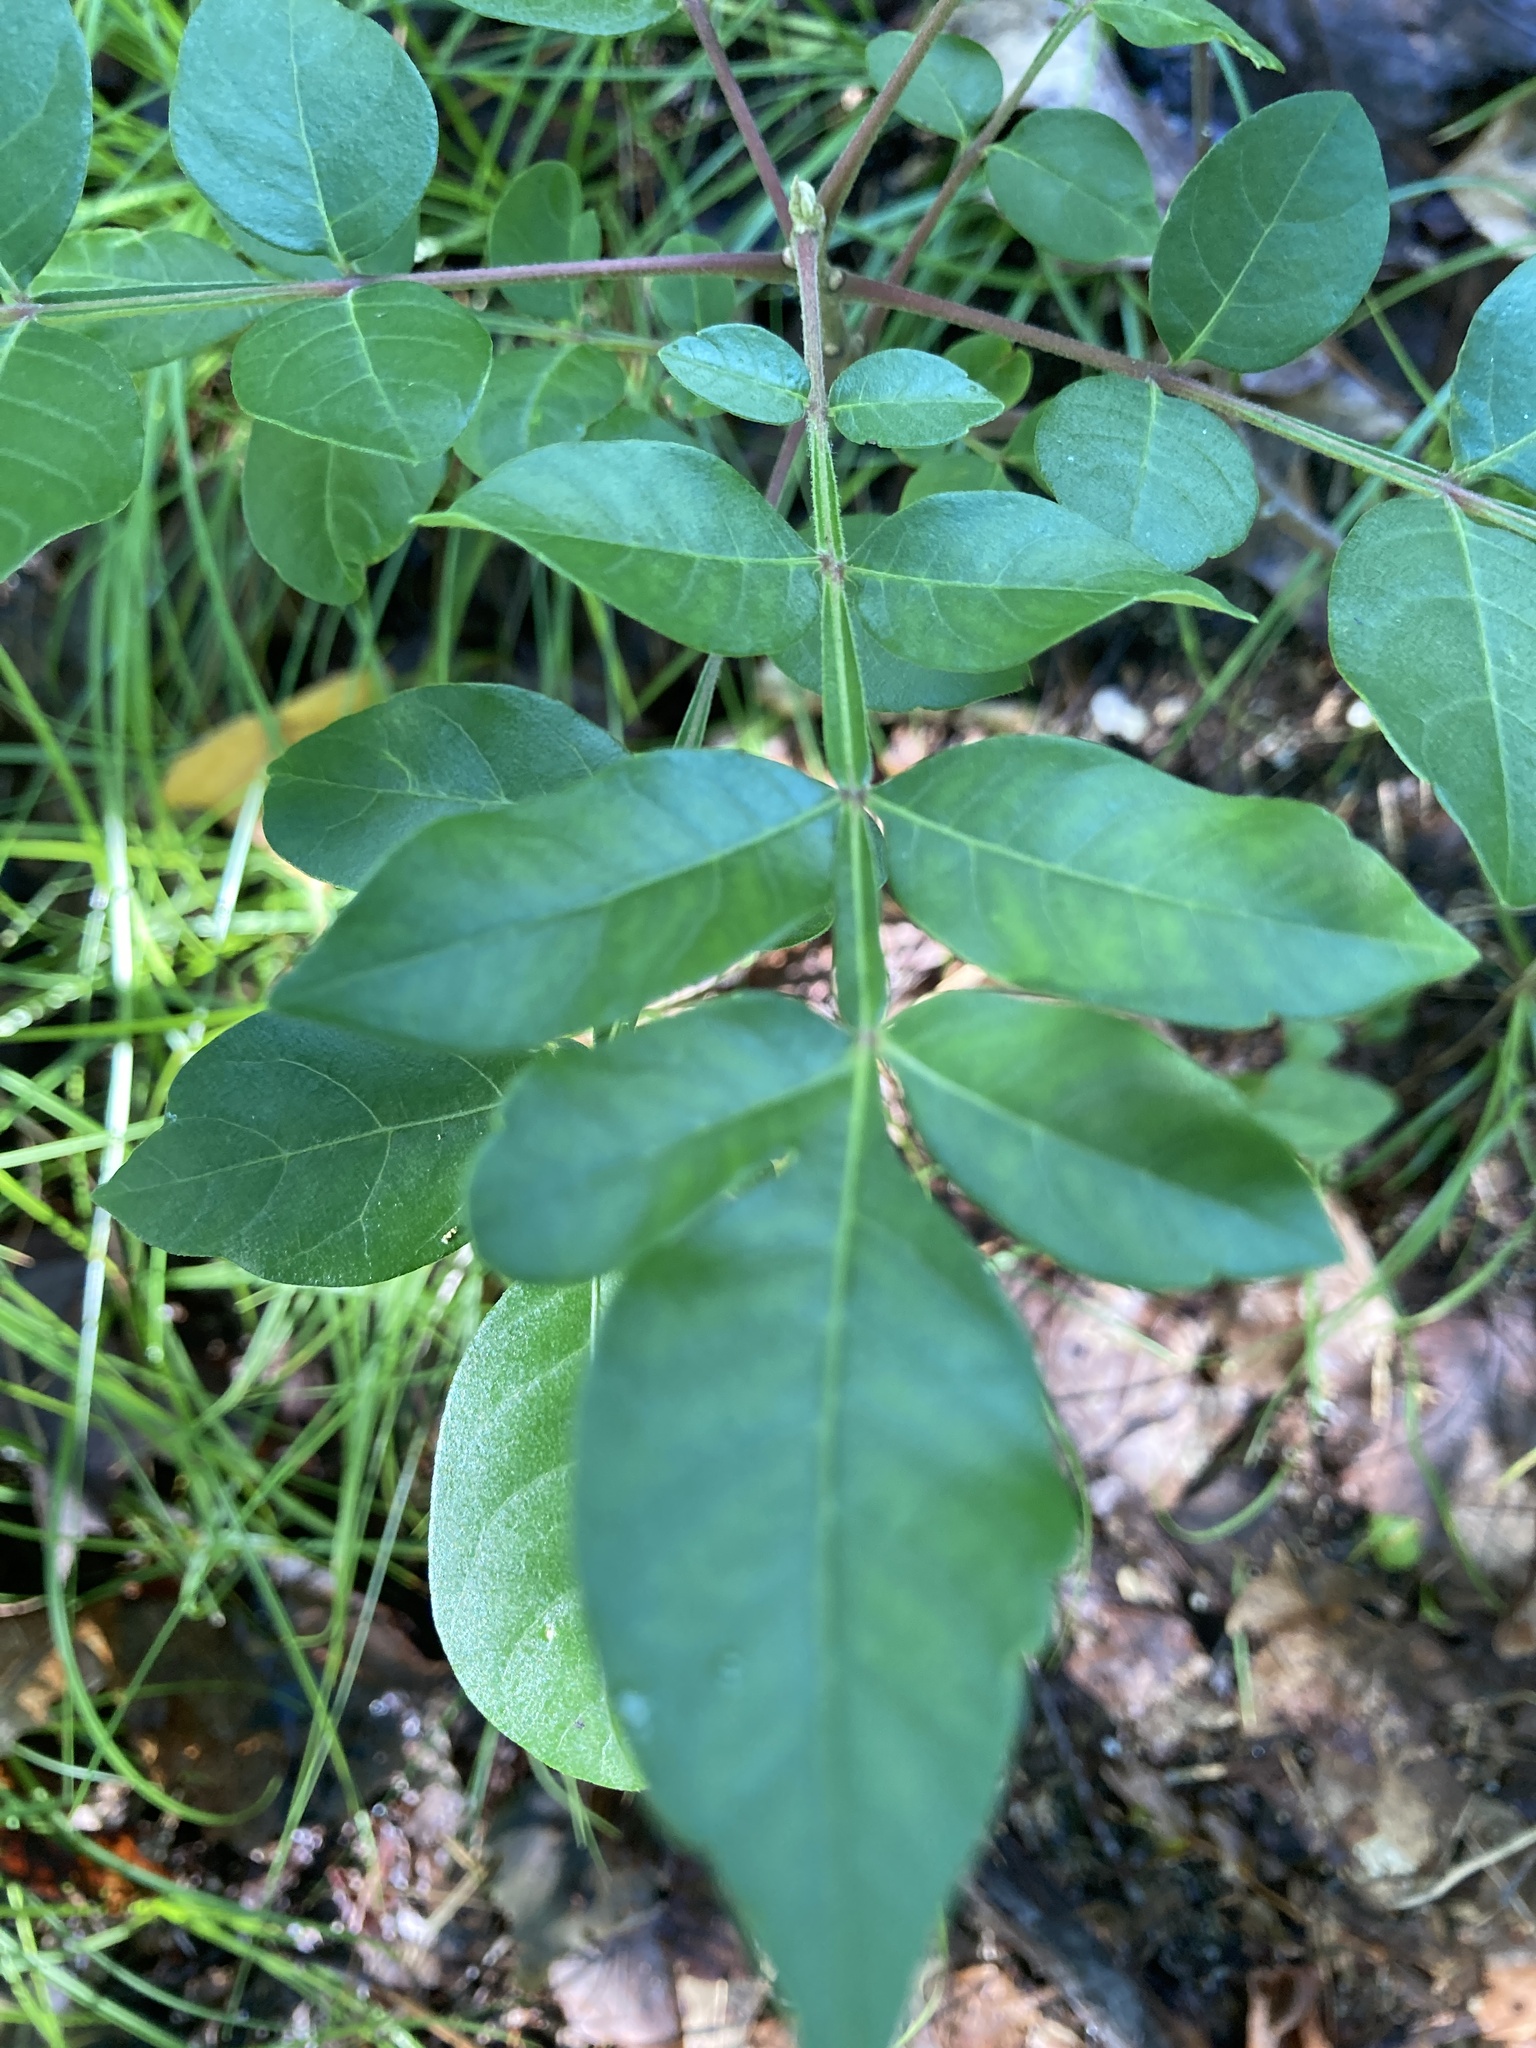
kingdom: Plantae
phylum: Tracheophyta
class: Magnoliopsida
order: Sapindales
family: Anacardiaceae
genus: Rhus
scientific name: Rhus copallina
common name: Shining sumac
